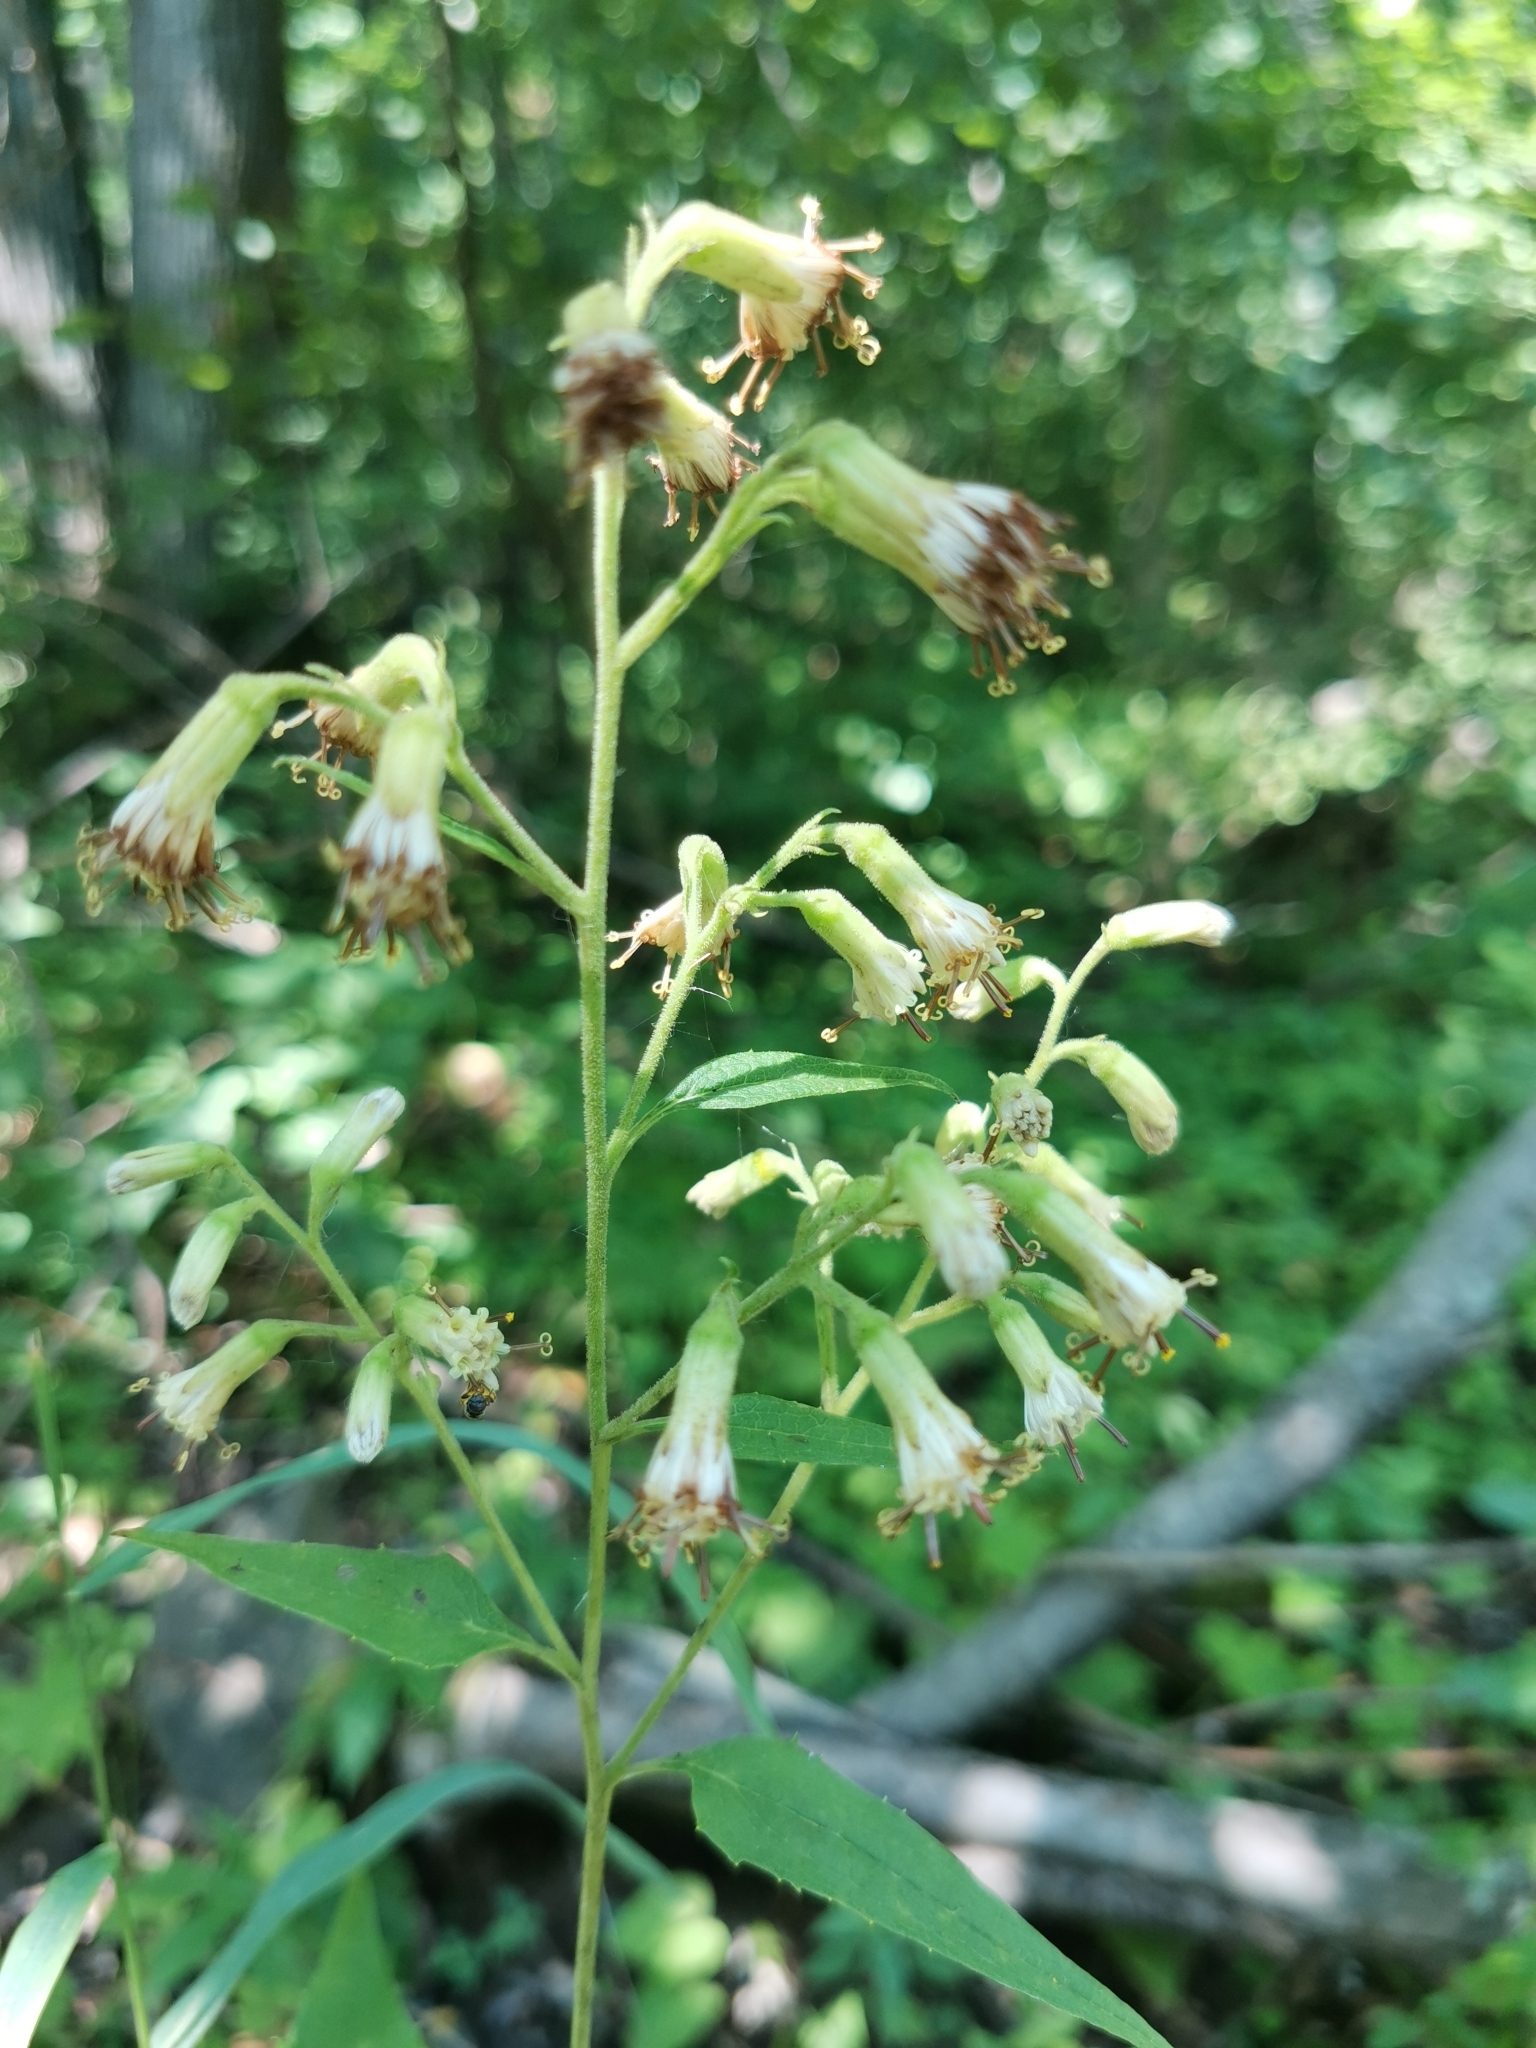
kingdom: Plantae
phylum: Tracheophyta
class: Magnoliopsida
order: Asterales
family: Asteraceae
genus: Parasenecio
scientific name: Parasenecio hastatus
